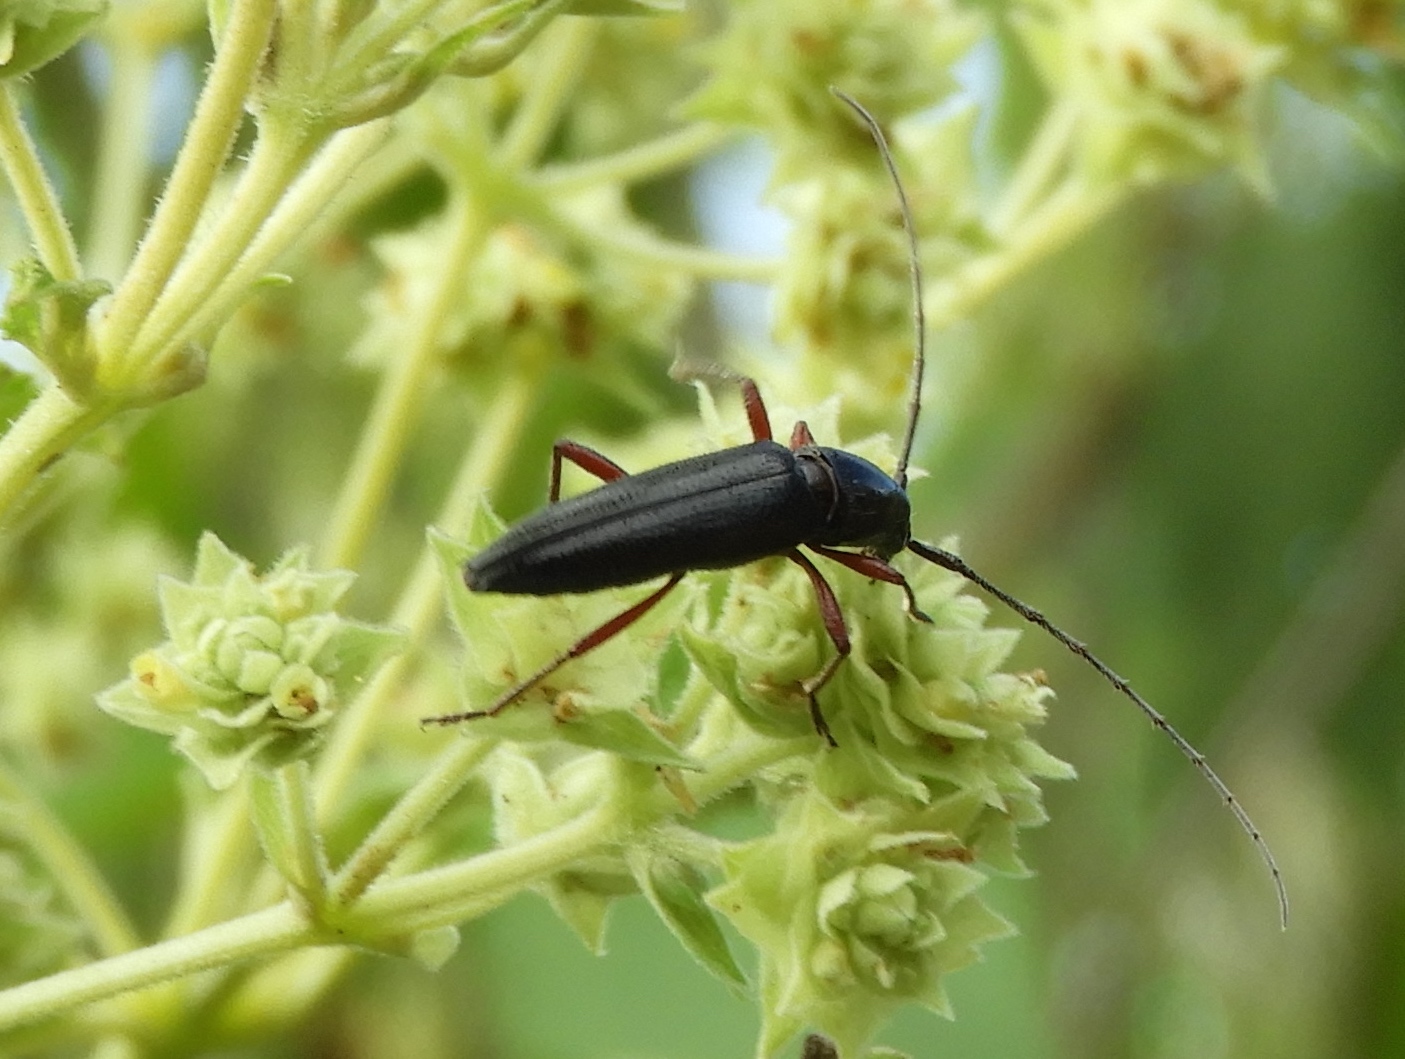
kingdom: Animalia
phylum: Arthropoda
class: Insecta
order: Coleoptera
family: Cerambycidae
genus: Stenosphenus
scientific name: Stenosphenus
